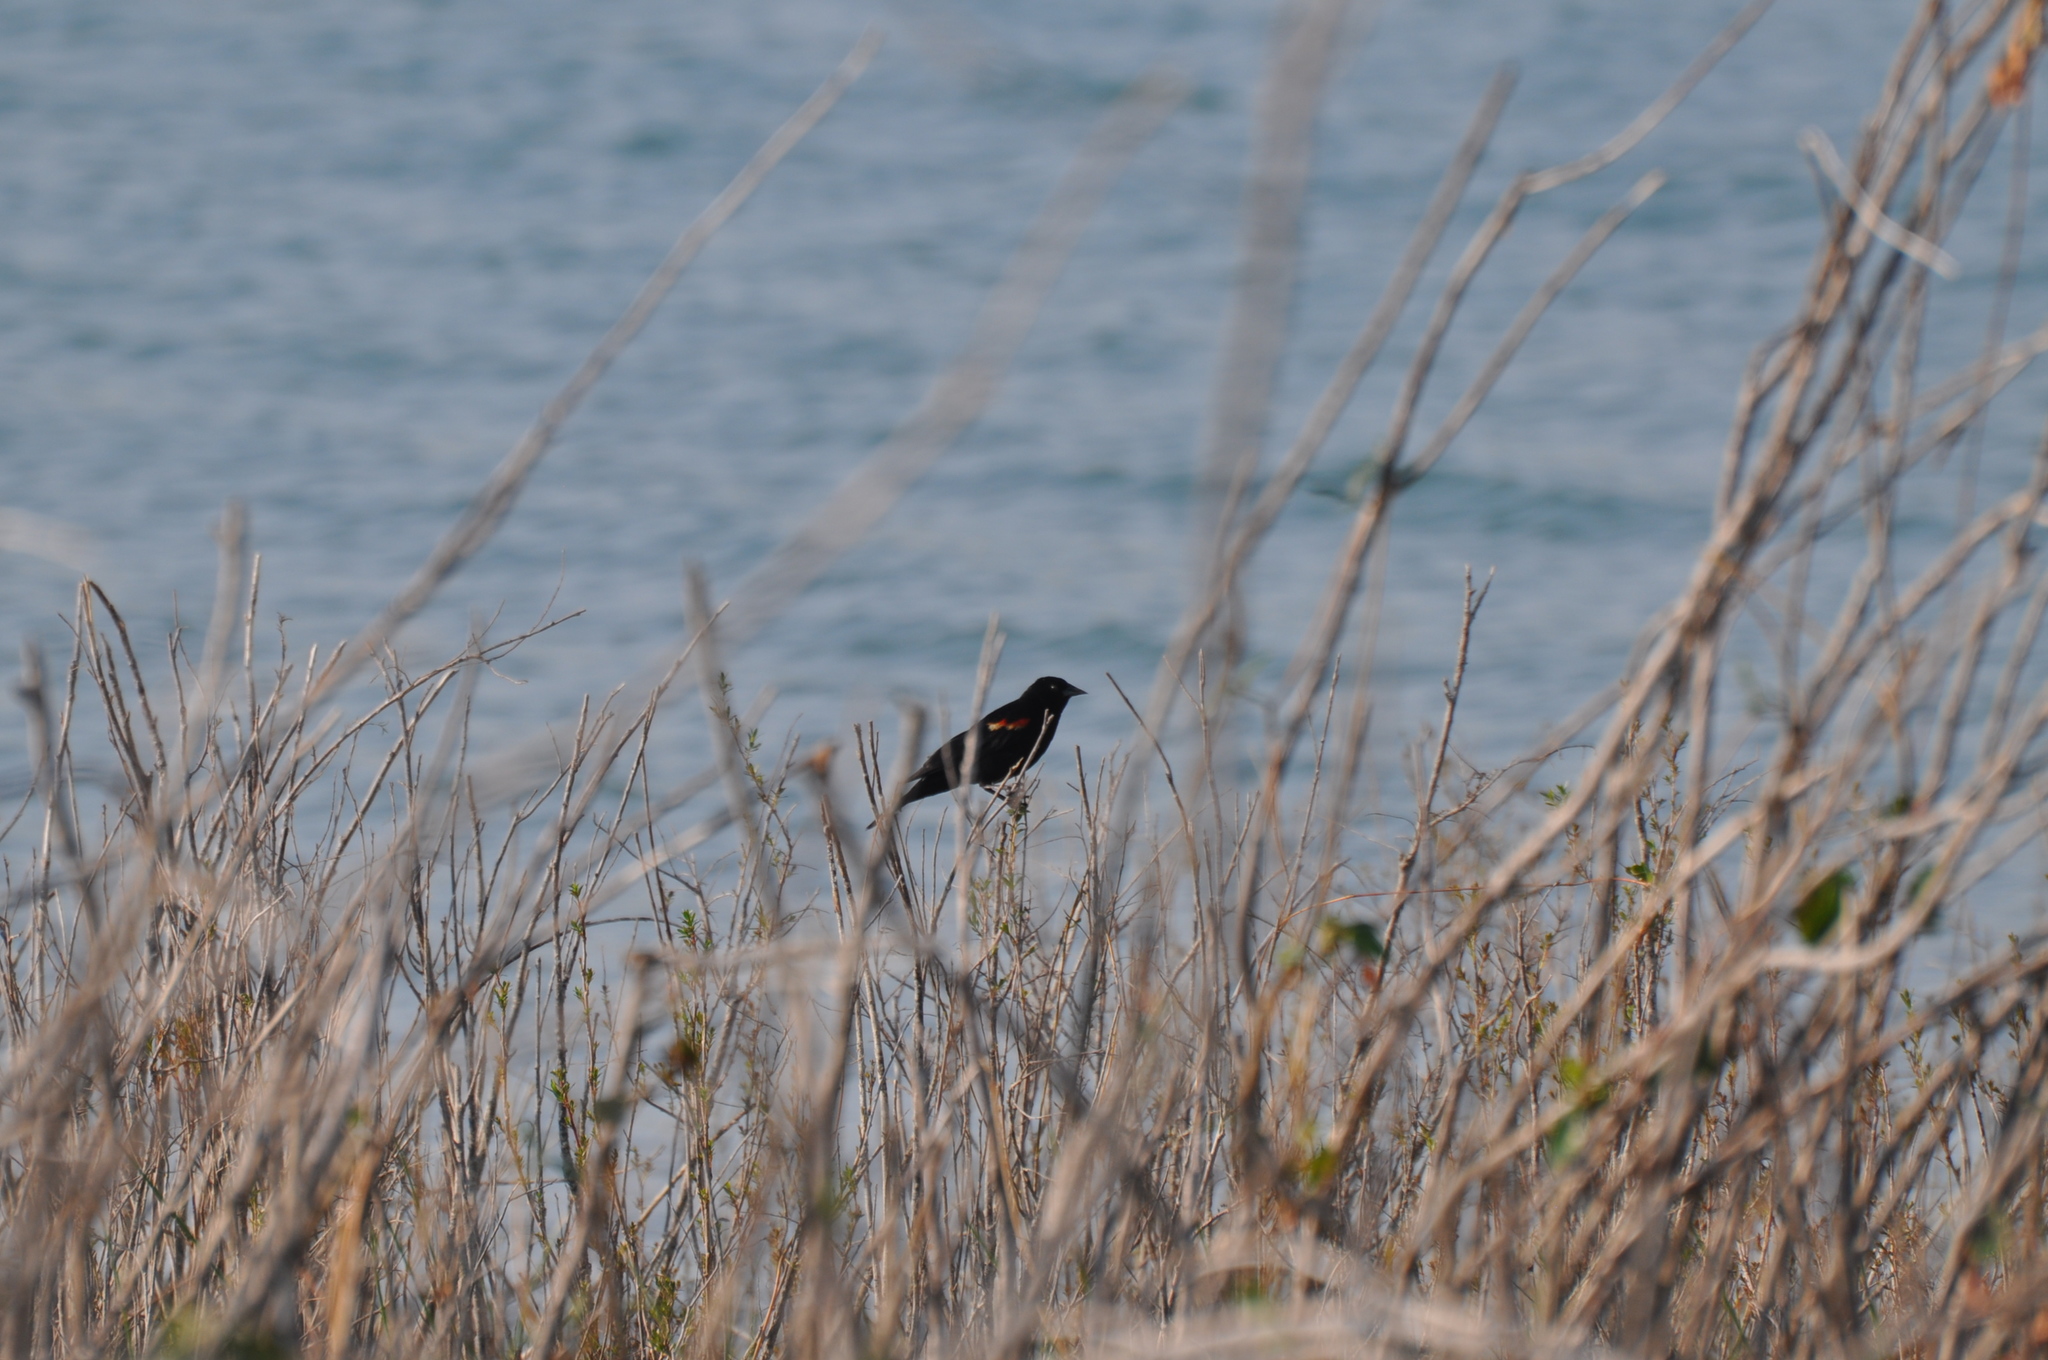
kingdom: Animalia
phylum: Chordata
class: Aves
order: Passeriformes
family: Icteridae
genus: Agelaius
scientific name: Agelaius phoeniceus
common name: Red-winged blackbird
